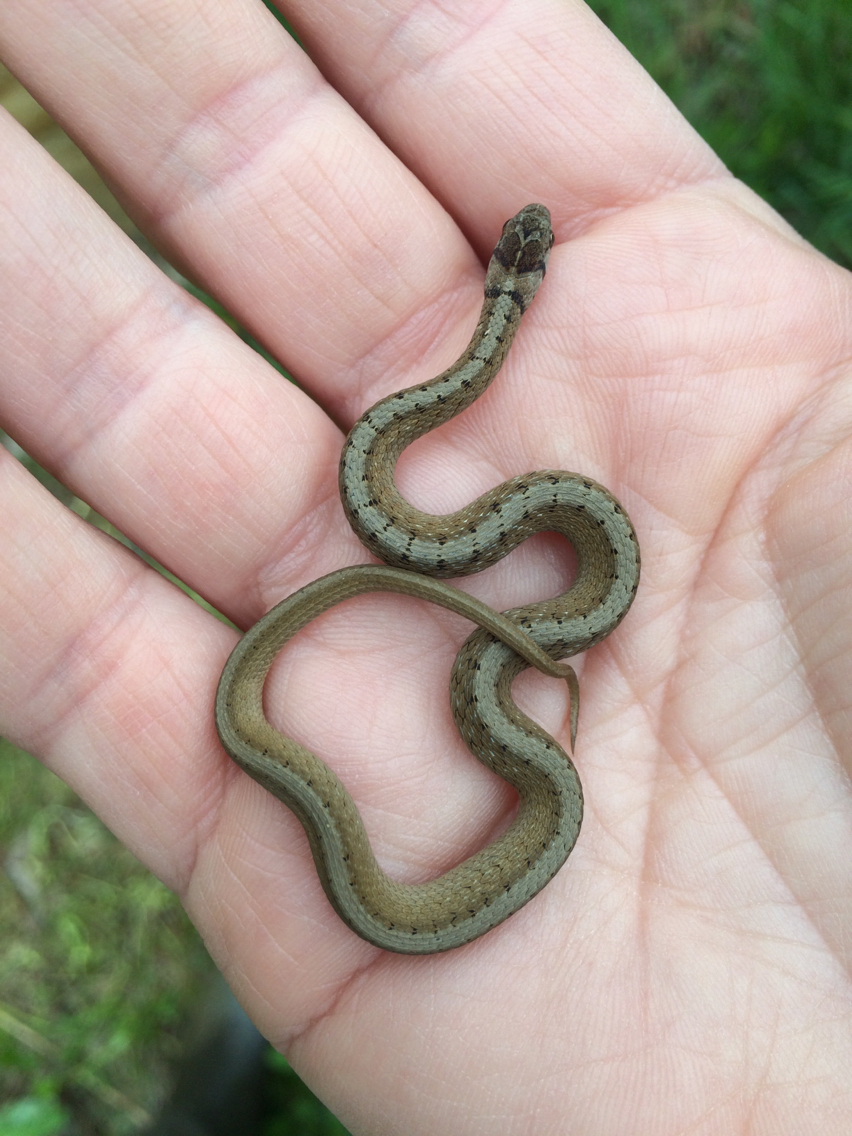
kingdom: Animalia
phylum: Chordata
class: Squamata
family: Colubridae
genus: Storeria
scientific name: Storeria dekayi
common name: (dekay’s) brown snake
